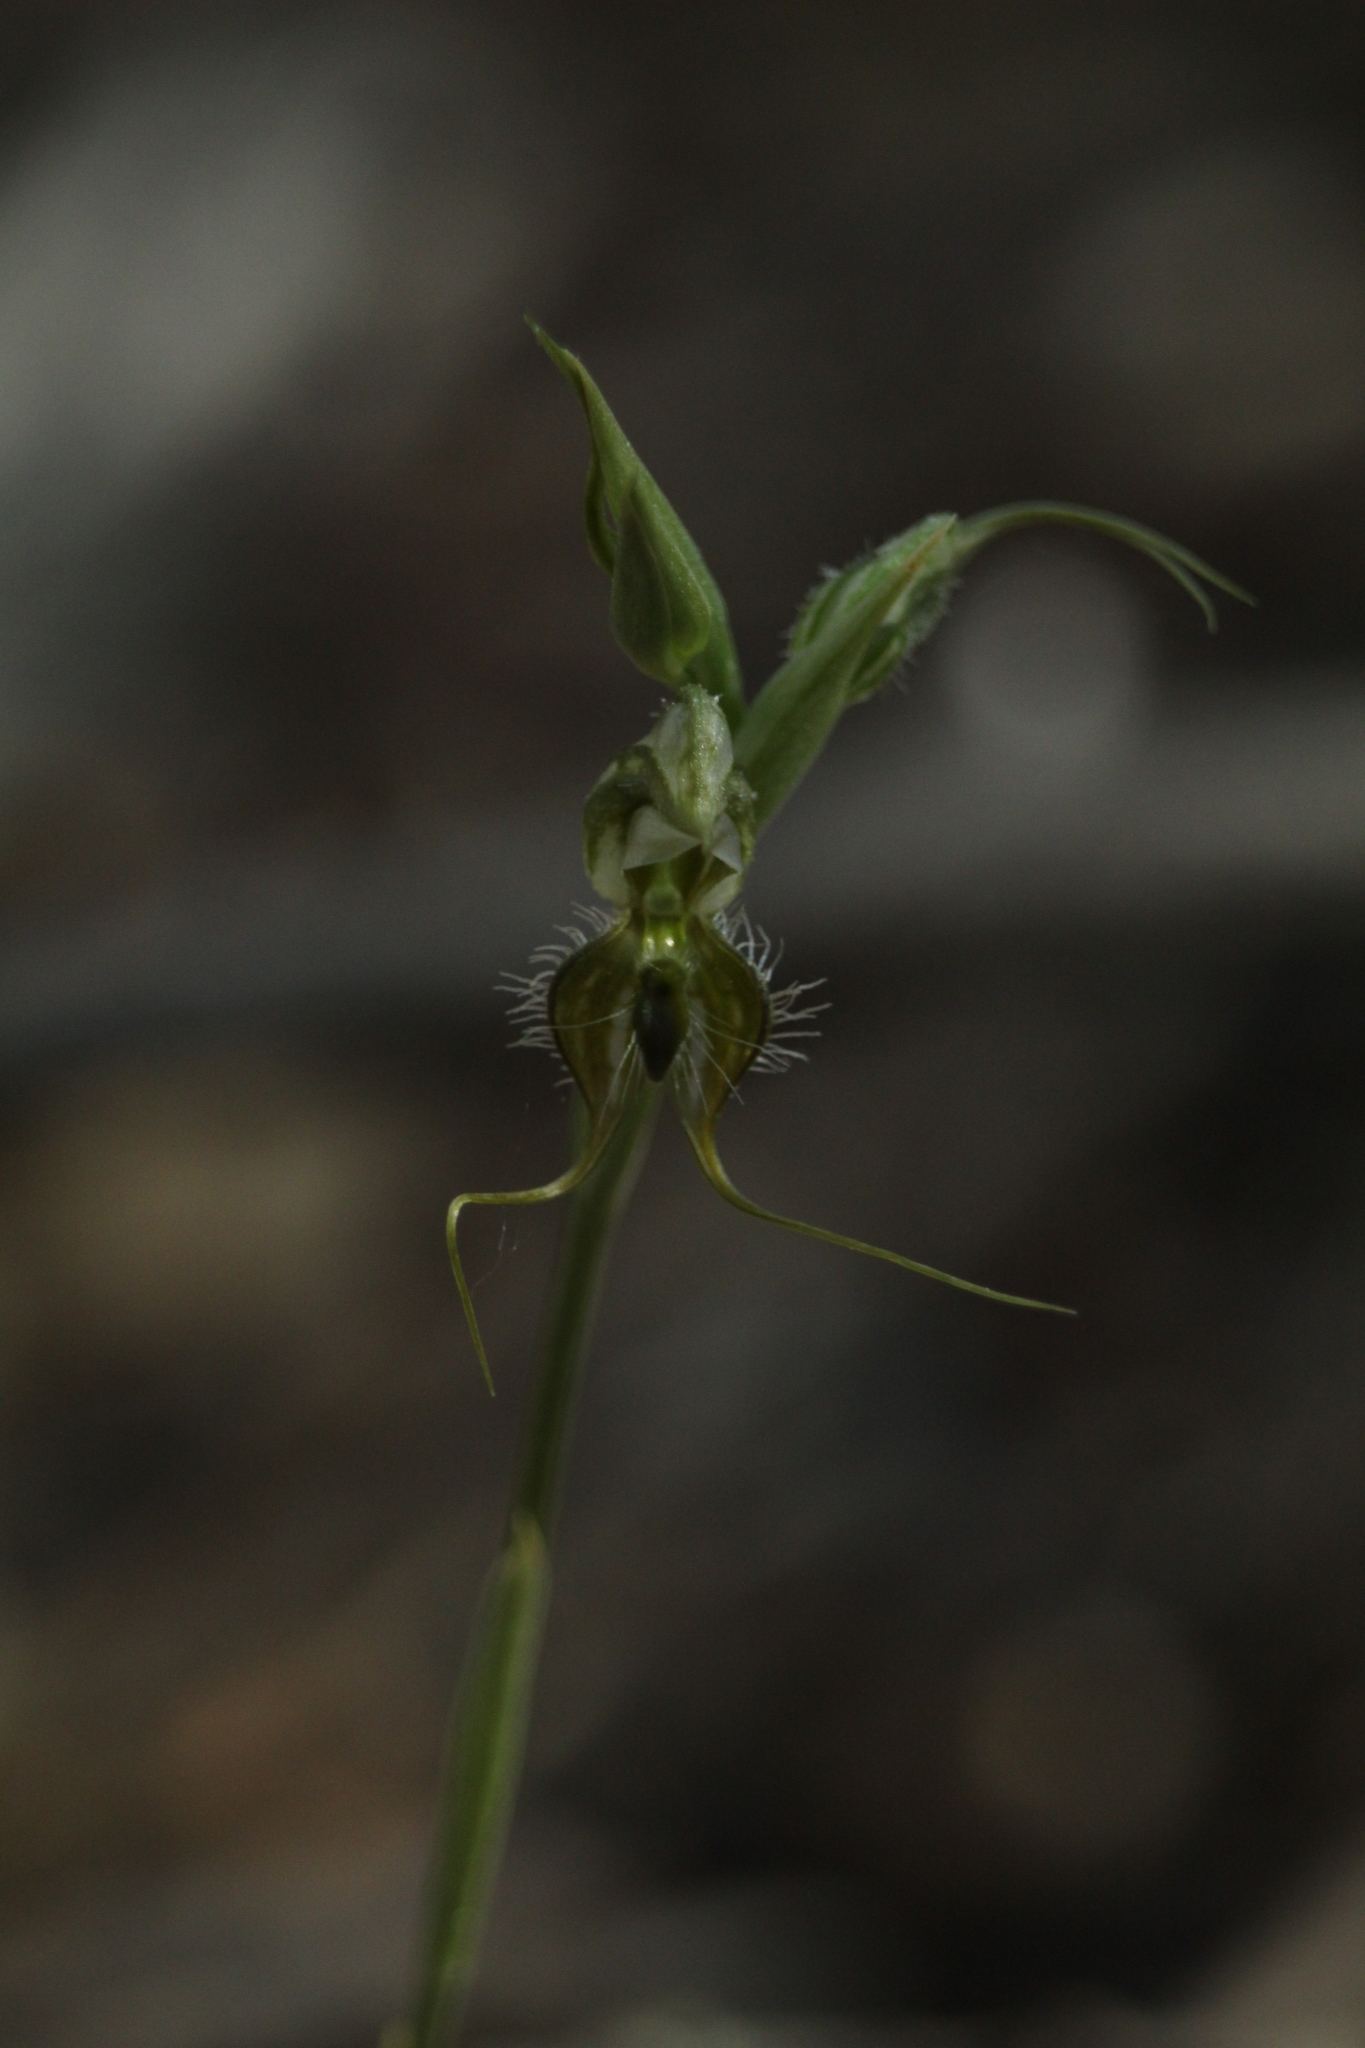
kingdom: Plantae
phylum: Tracheophyta
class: Liliopsida
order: Asparagales
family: Orchidaceae
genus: Pterostylis
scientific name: Pterostylis ciliata
